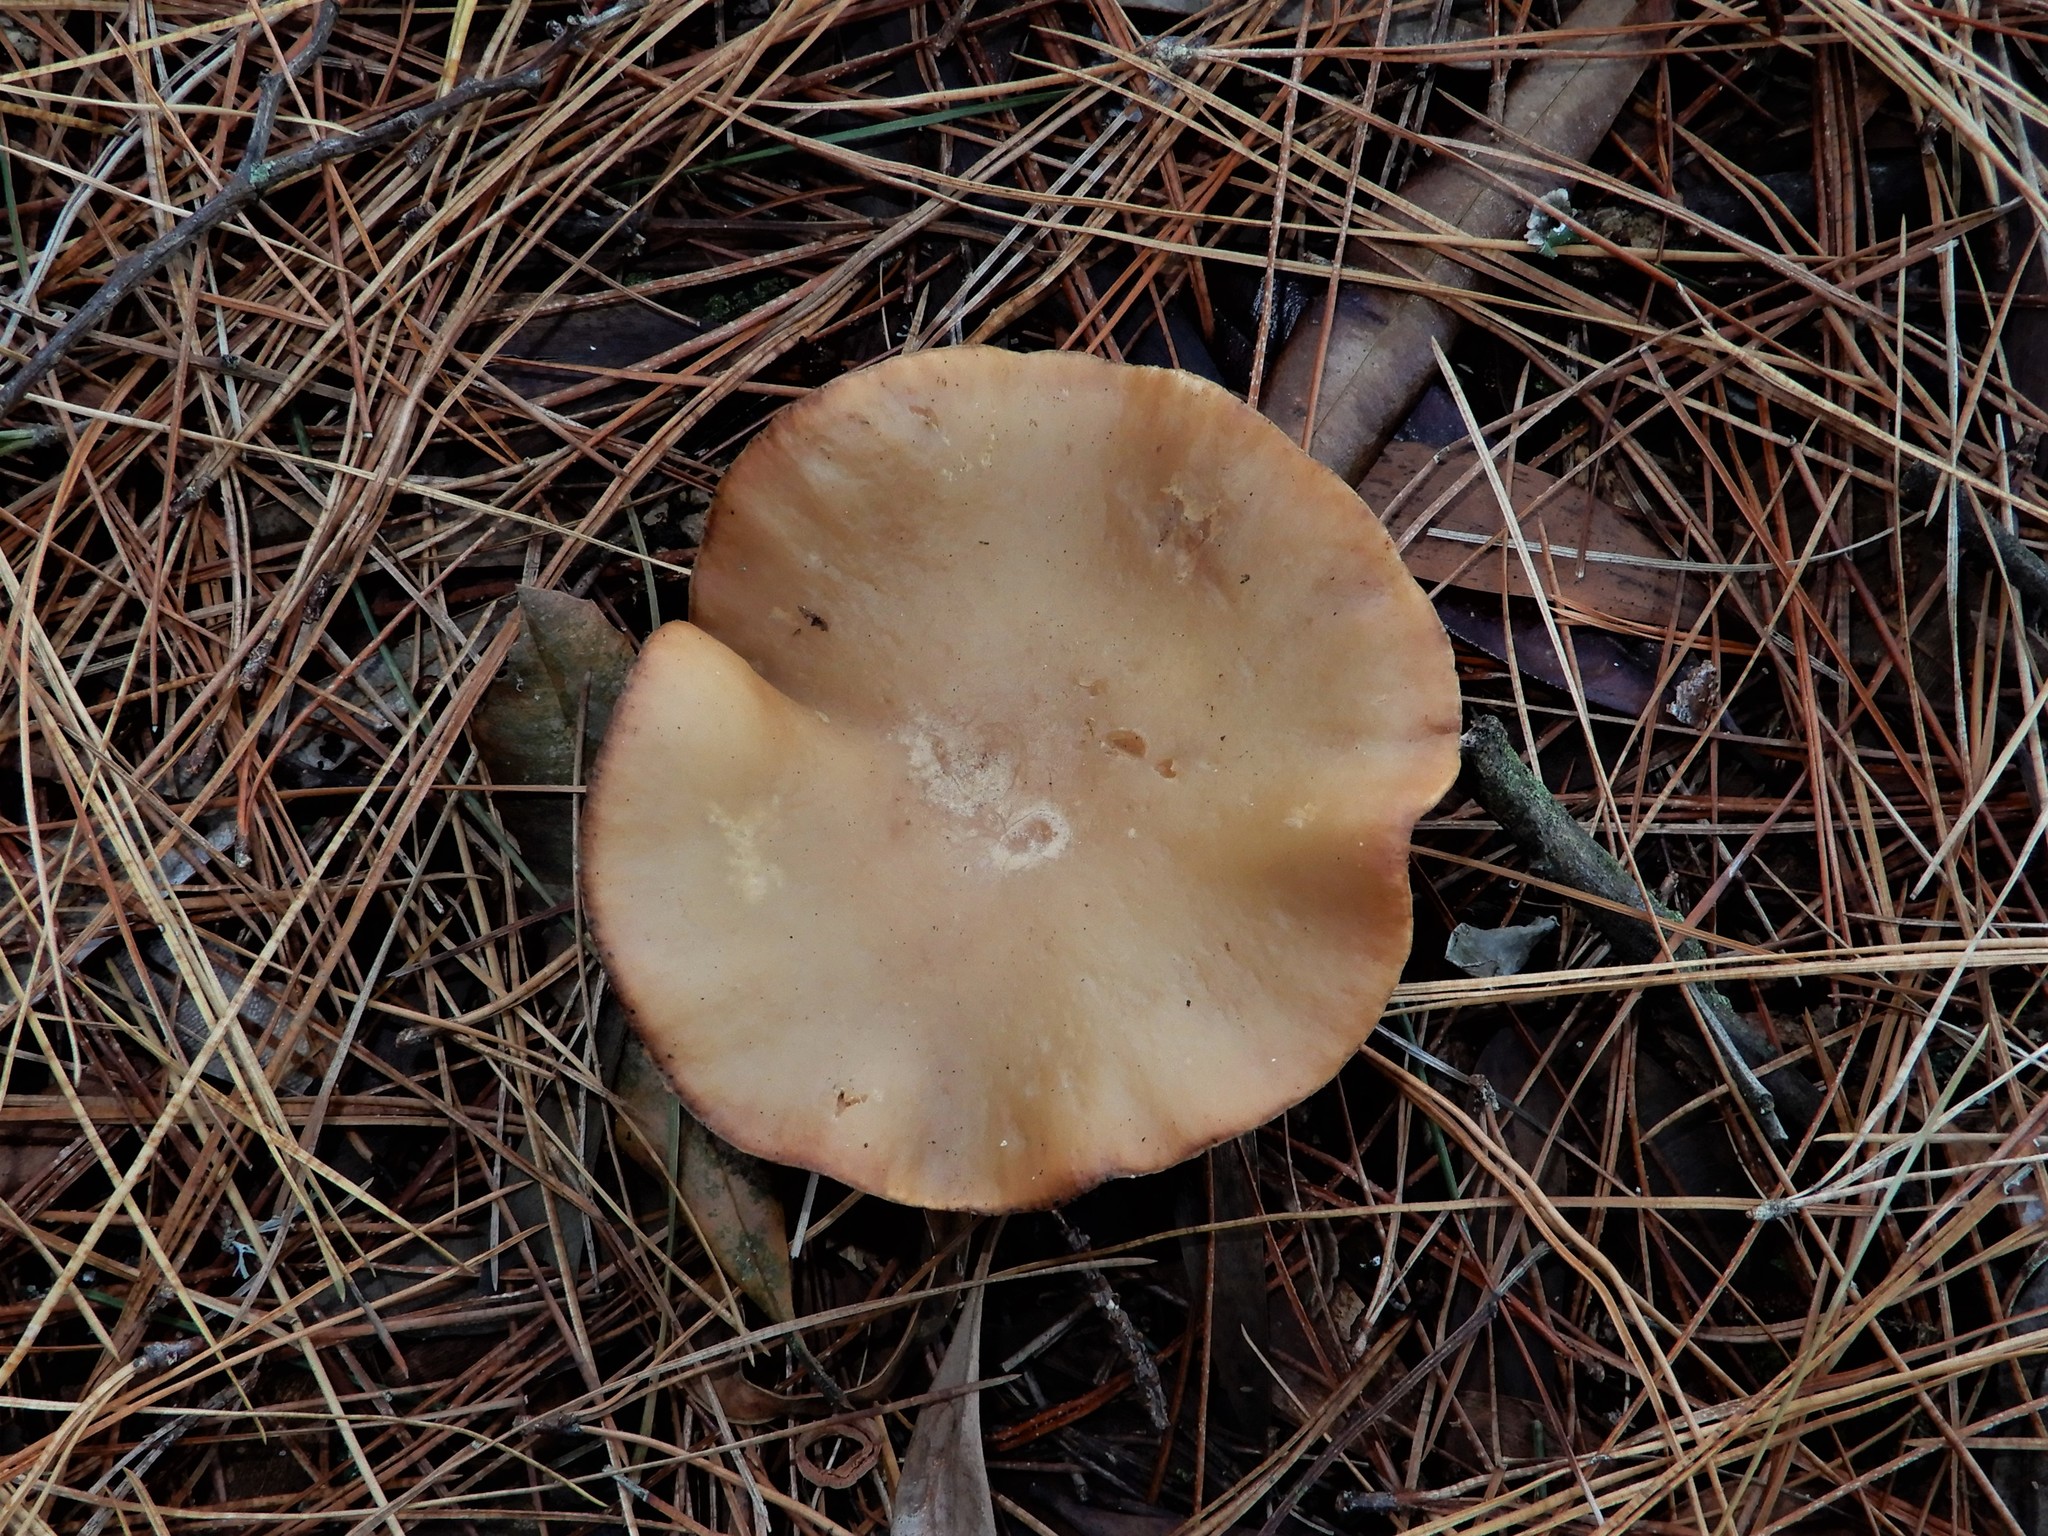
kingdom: Fungi
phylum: Basidiomycota
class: Agaricomycetes
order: Agaricales
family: Entolomataceae
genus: Clitopilus
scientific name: Clitopilus piperitus
